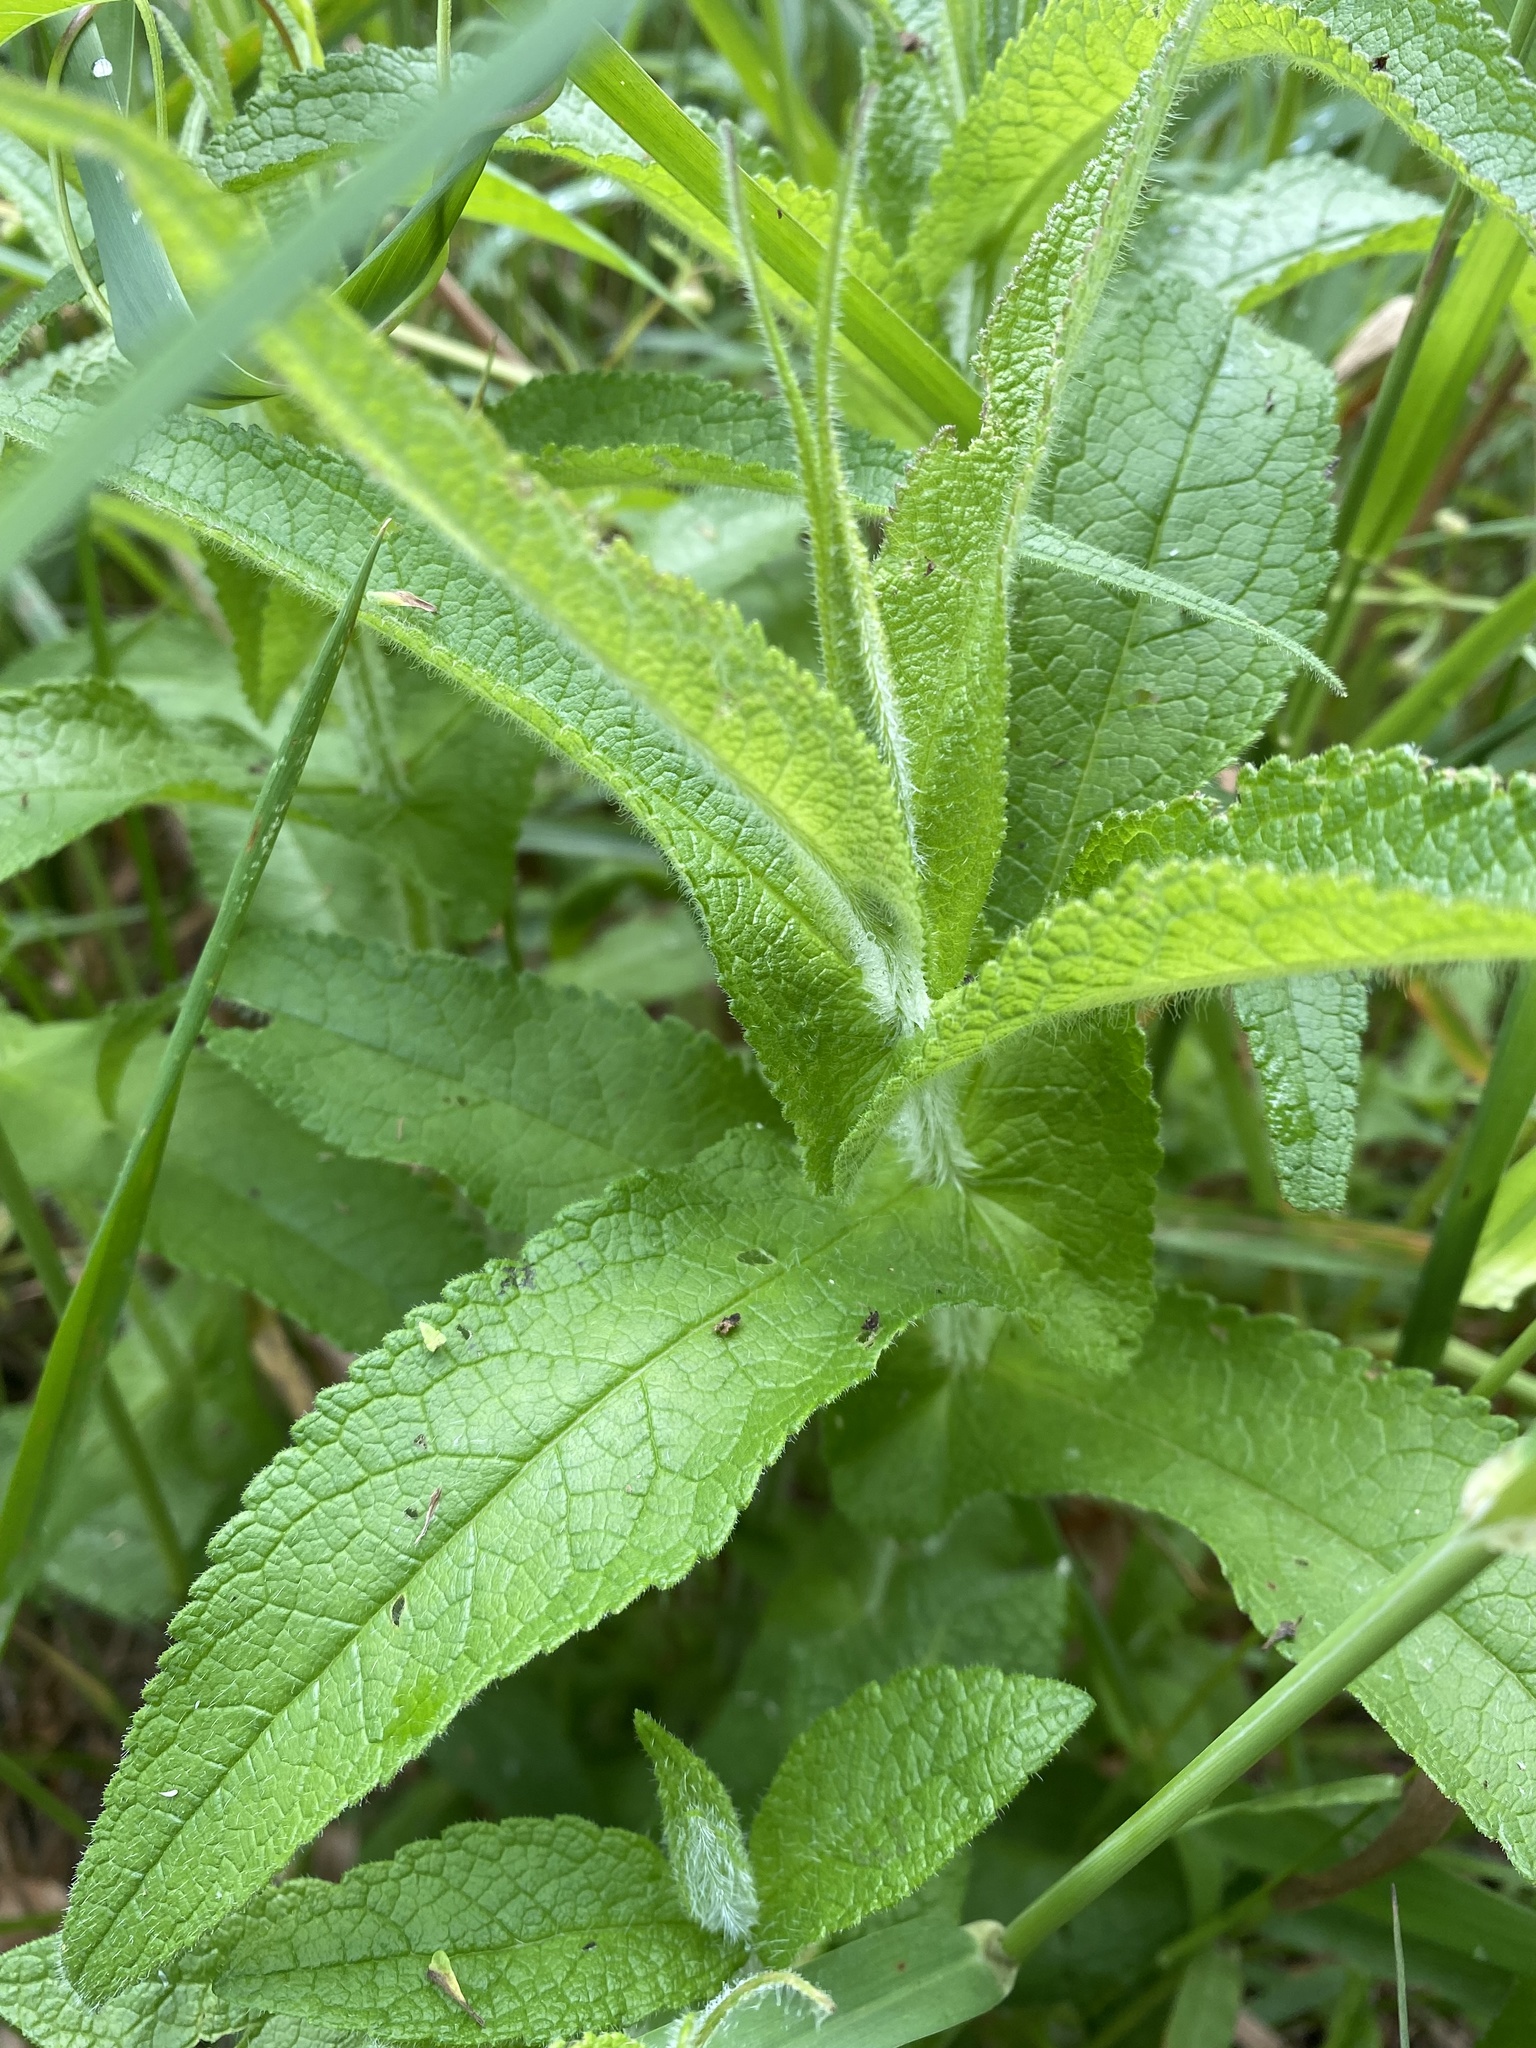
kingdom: Plantae
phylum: Tracheophyta
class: Magnoliopsida
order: Asterales
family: Asteraceae
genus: Eupatorium
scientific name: Eupatorium perfoliatum
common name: Boneset
